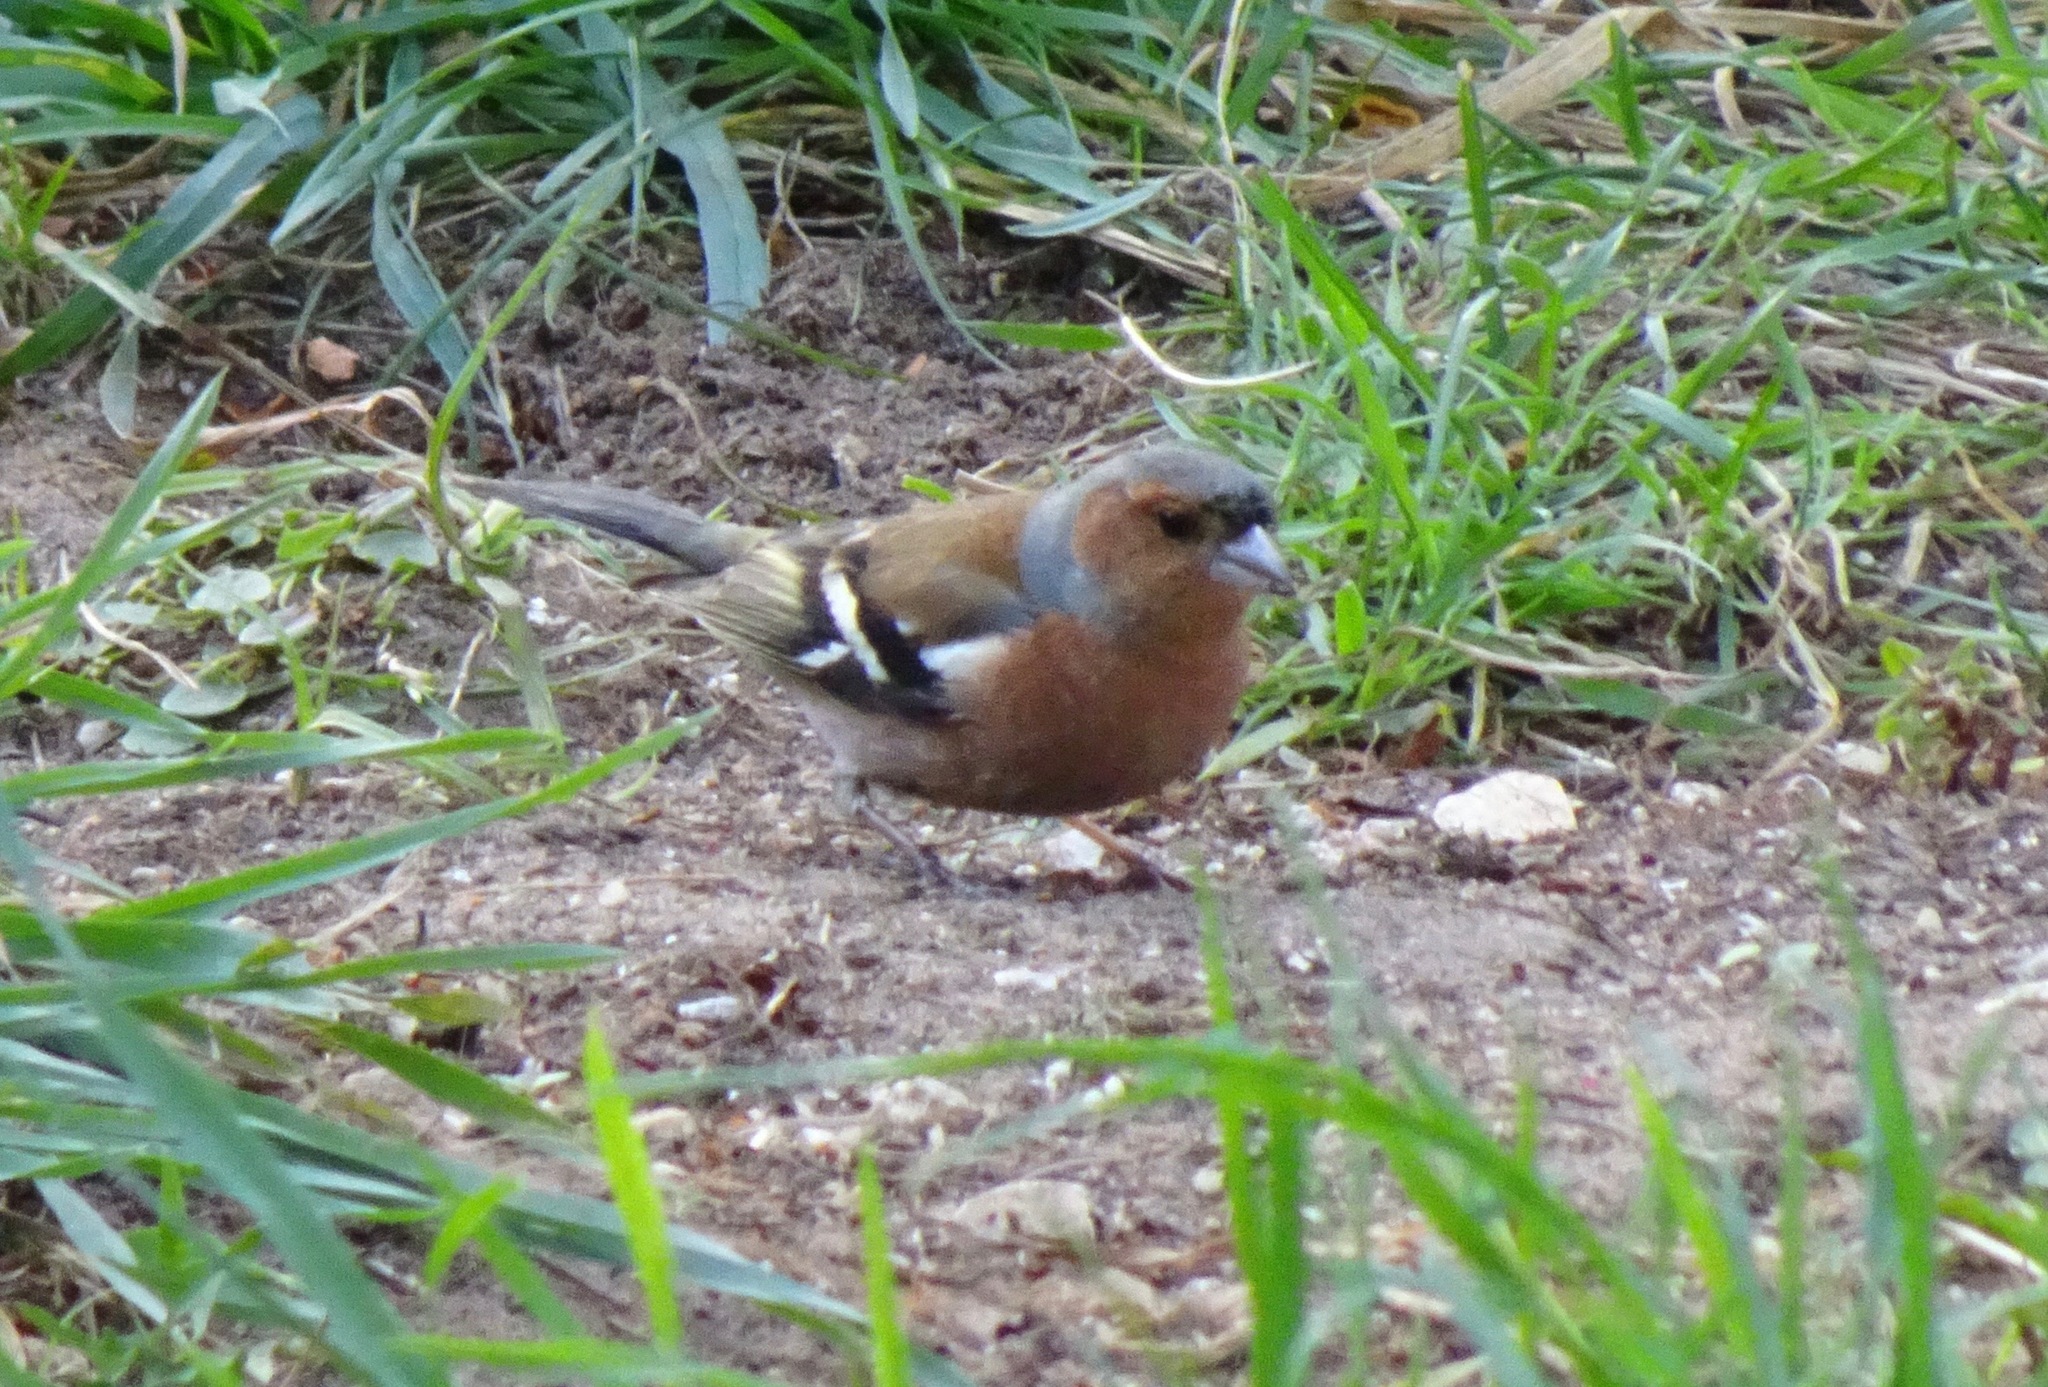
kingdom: Animalia
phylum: Chordata
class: Aves
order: Passeriformes
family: Fringillidae
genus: Fringilla
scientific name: Fringilla coelebs
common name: Common chaffinch
